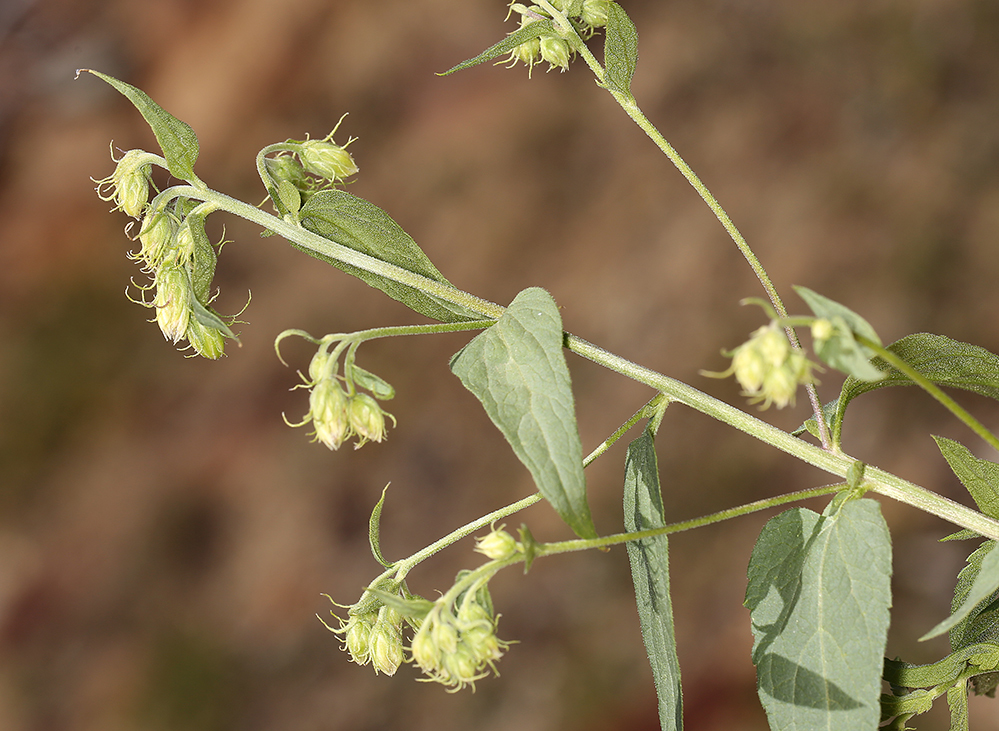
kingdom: Plantae
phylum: Tracheophyta
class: Magnoliopsida
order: Asterales
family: Asteraceae
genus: Brickellia
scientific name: Brickellia grandiflora
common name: Large-flowered brickellia
